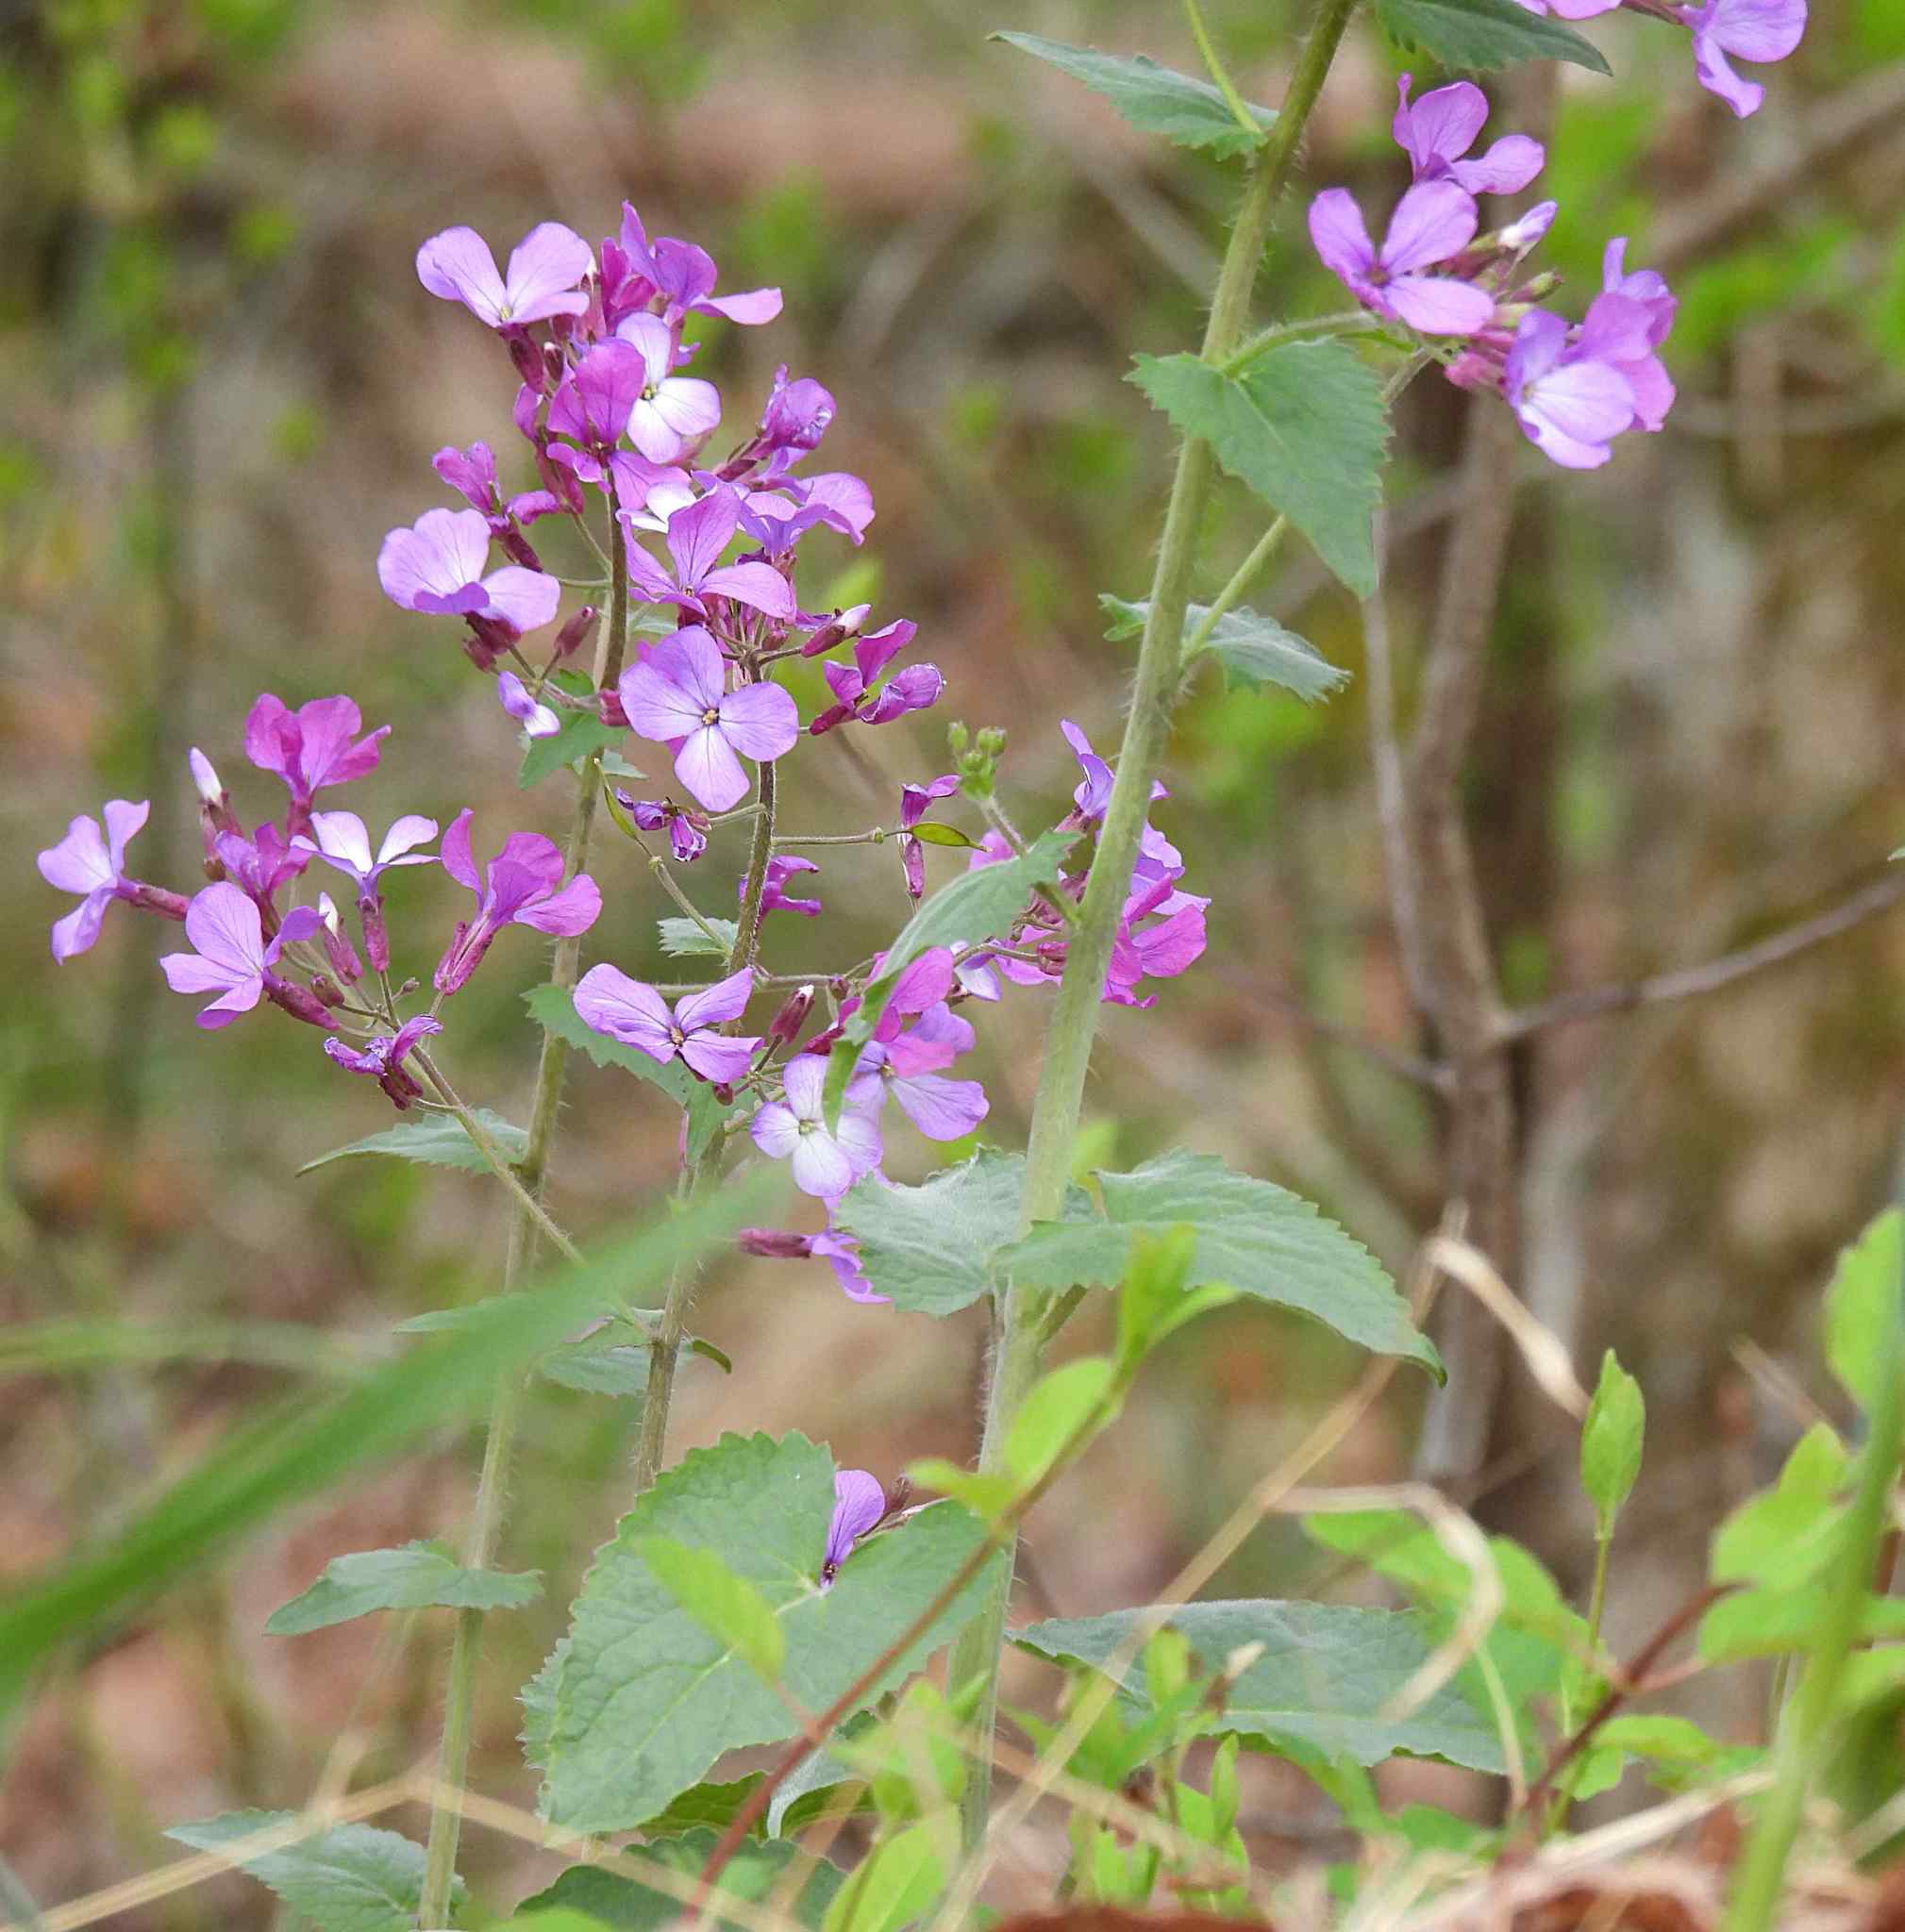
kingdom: Plantae
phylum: Tracheophyta
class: Magnoliopsida
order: Brassicales
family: Brassicaceae
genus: Lunaria
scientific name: Lunaria annua
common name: Honesty
